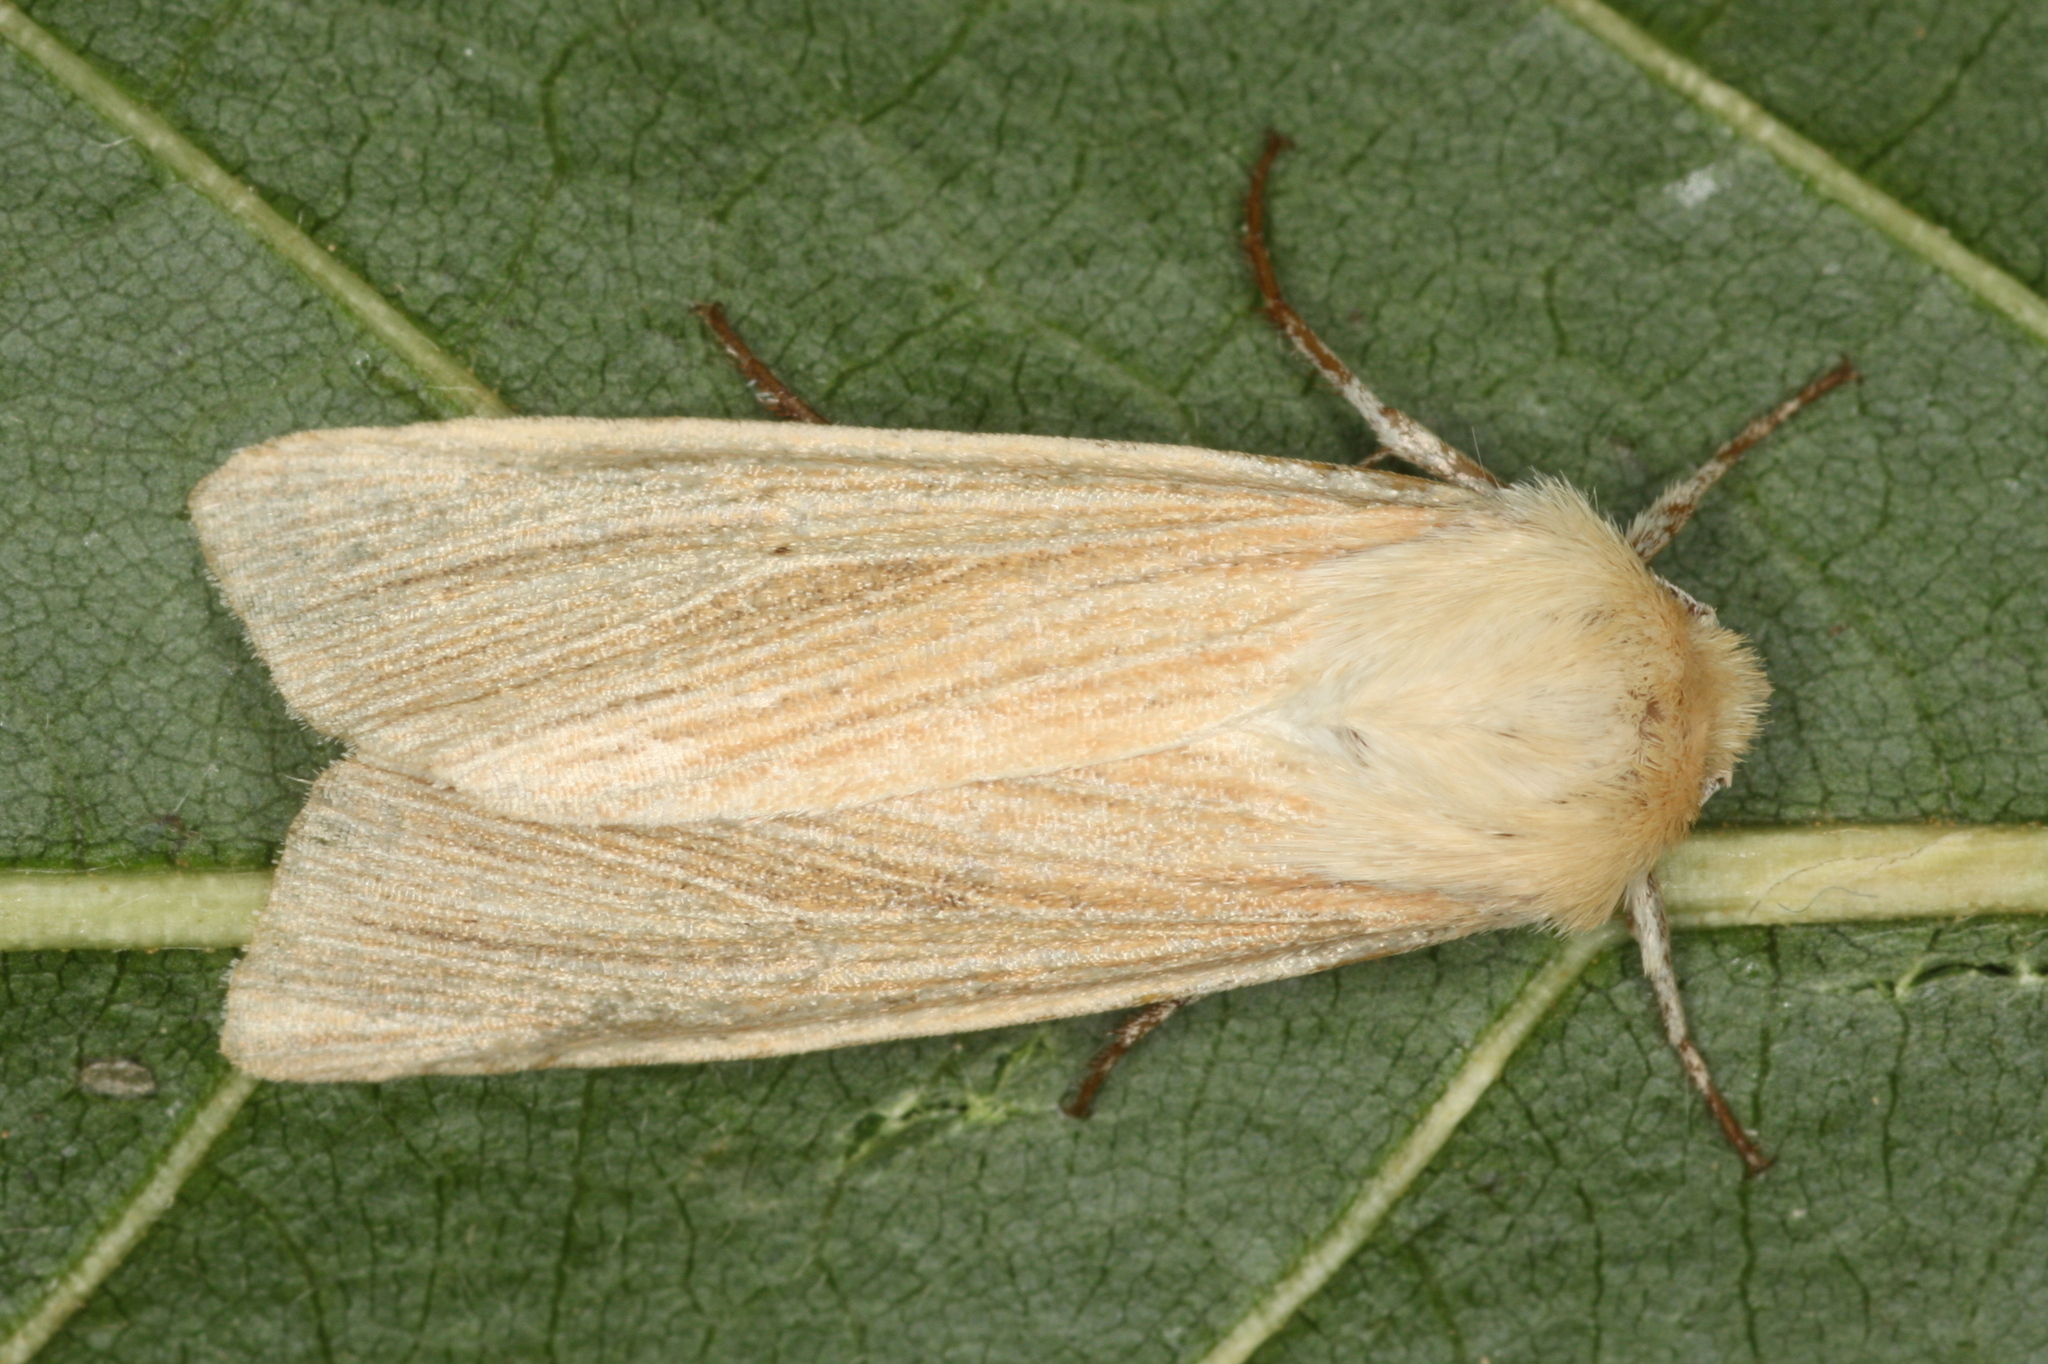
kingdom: Animalia
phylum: Arthropoda
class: Insecta
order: Lepidoptera
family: Noctuidae
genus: Mythimna
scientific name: Mythimna pallens
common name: Common wainscot
